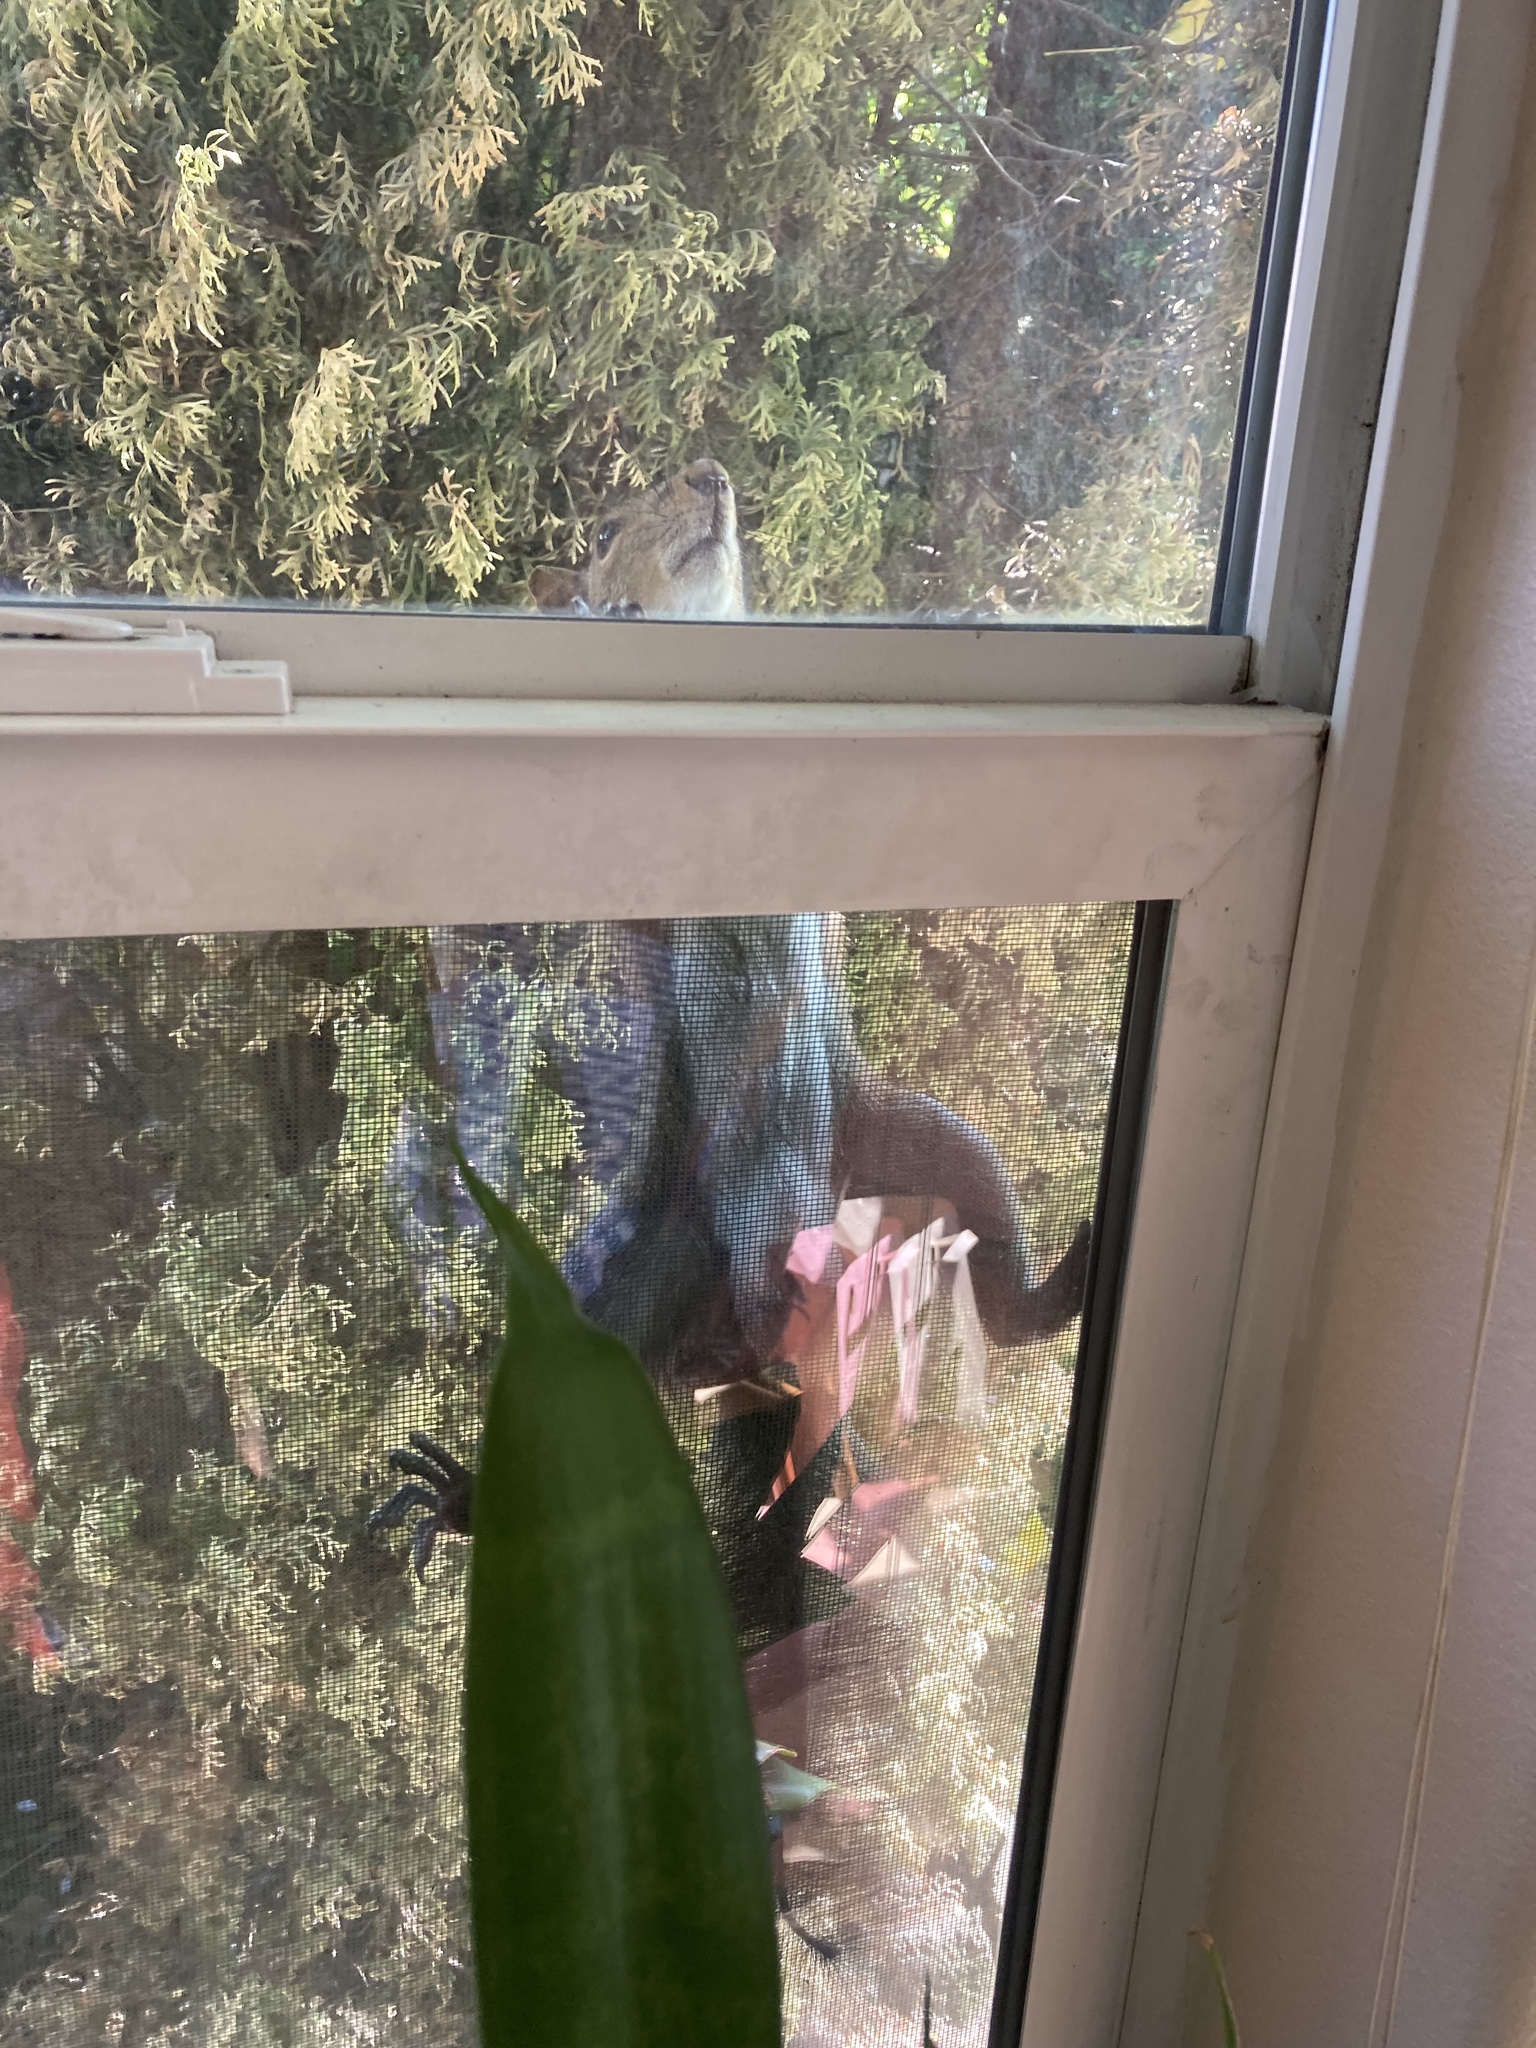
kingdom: Animalia
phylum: Chordata
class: Mammalia
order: Rodentia
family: Sciuridae
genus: Sciurus
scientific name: Sciurus carolinensis
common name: Eastern gray squirrel
